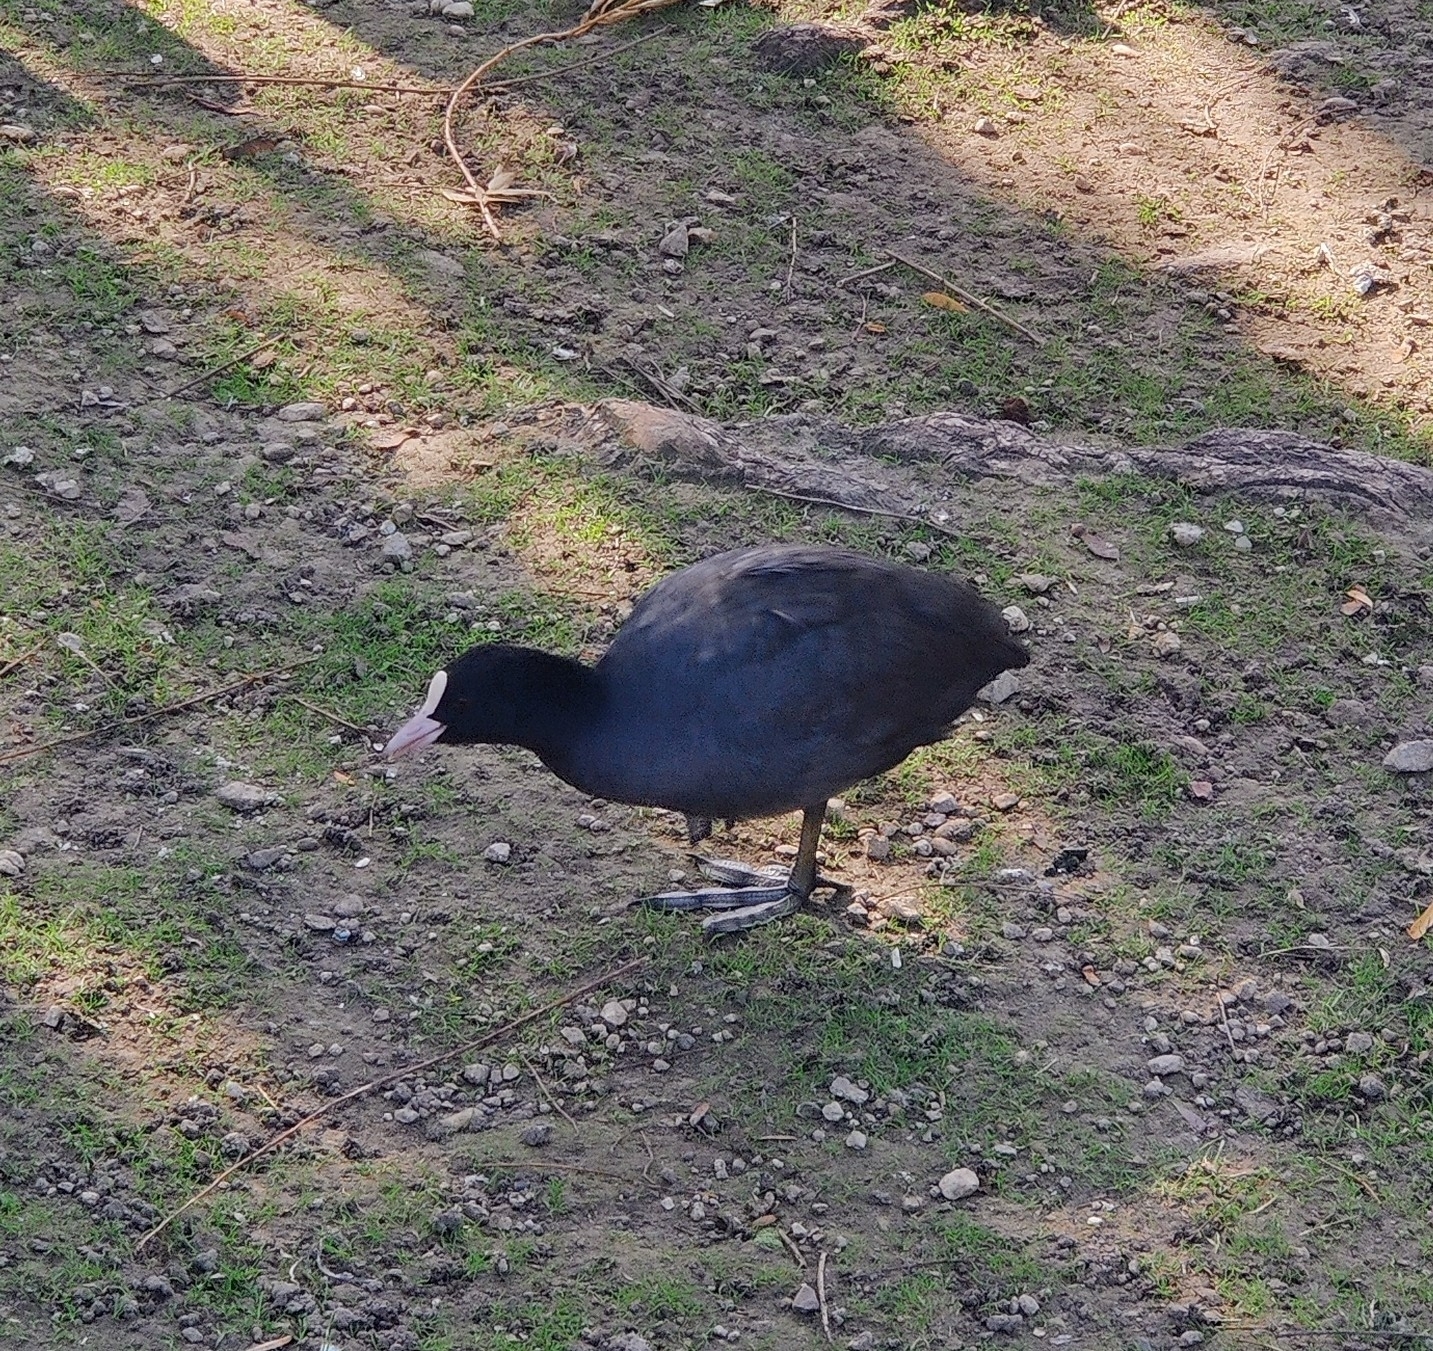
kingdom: Animalia
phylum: Chordata
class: Aves
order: Gruiformes
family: Rallidae
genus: Fulica
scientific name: Fulica atra
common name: Eurasian coot
